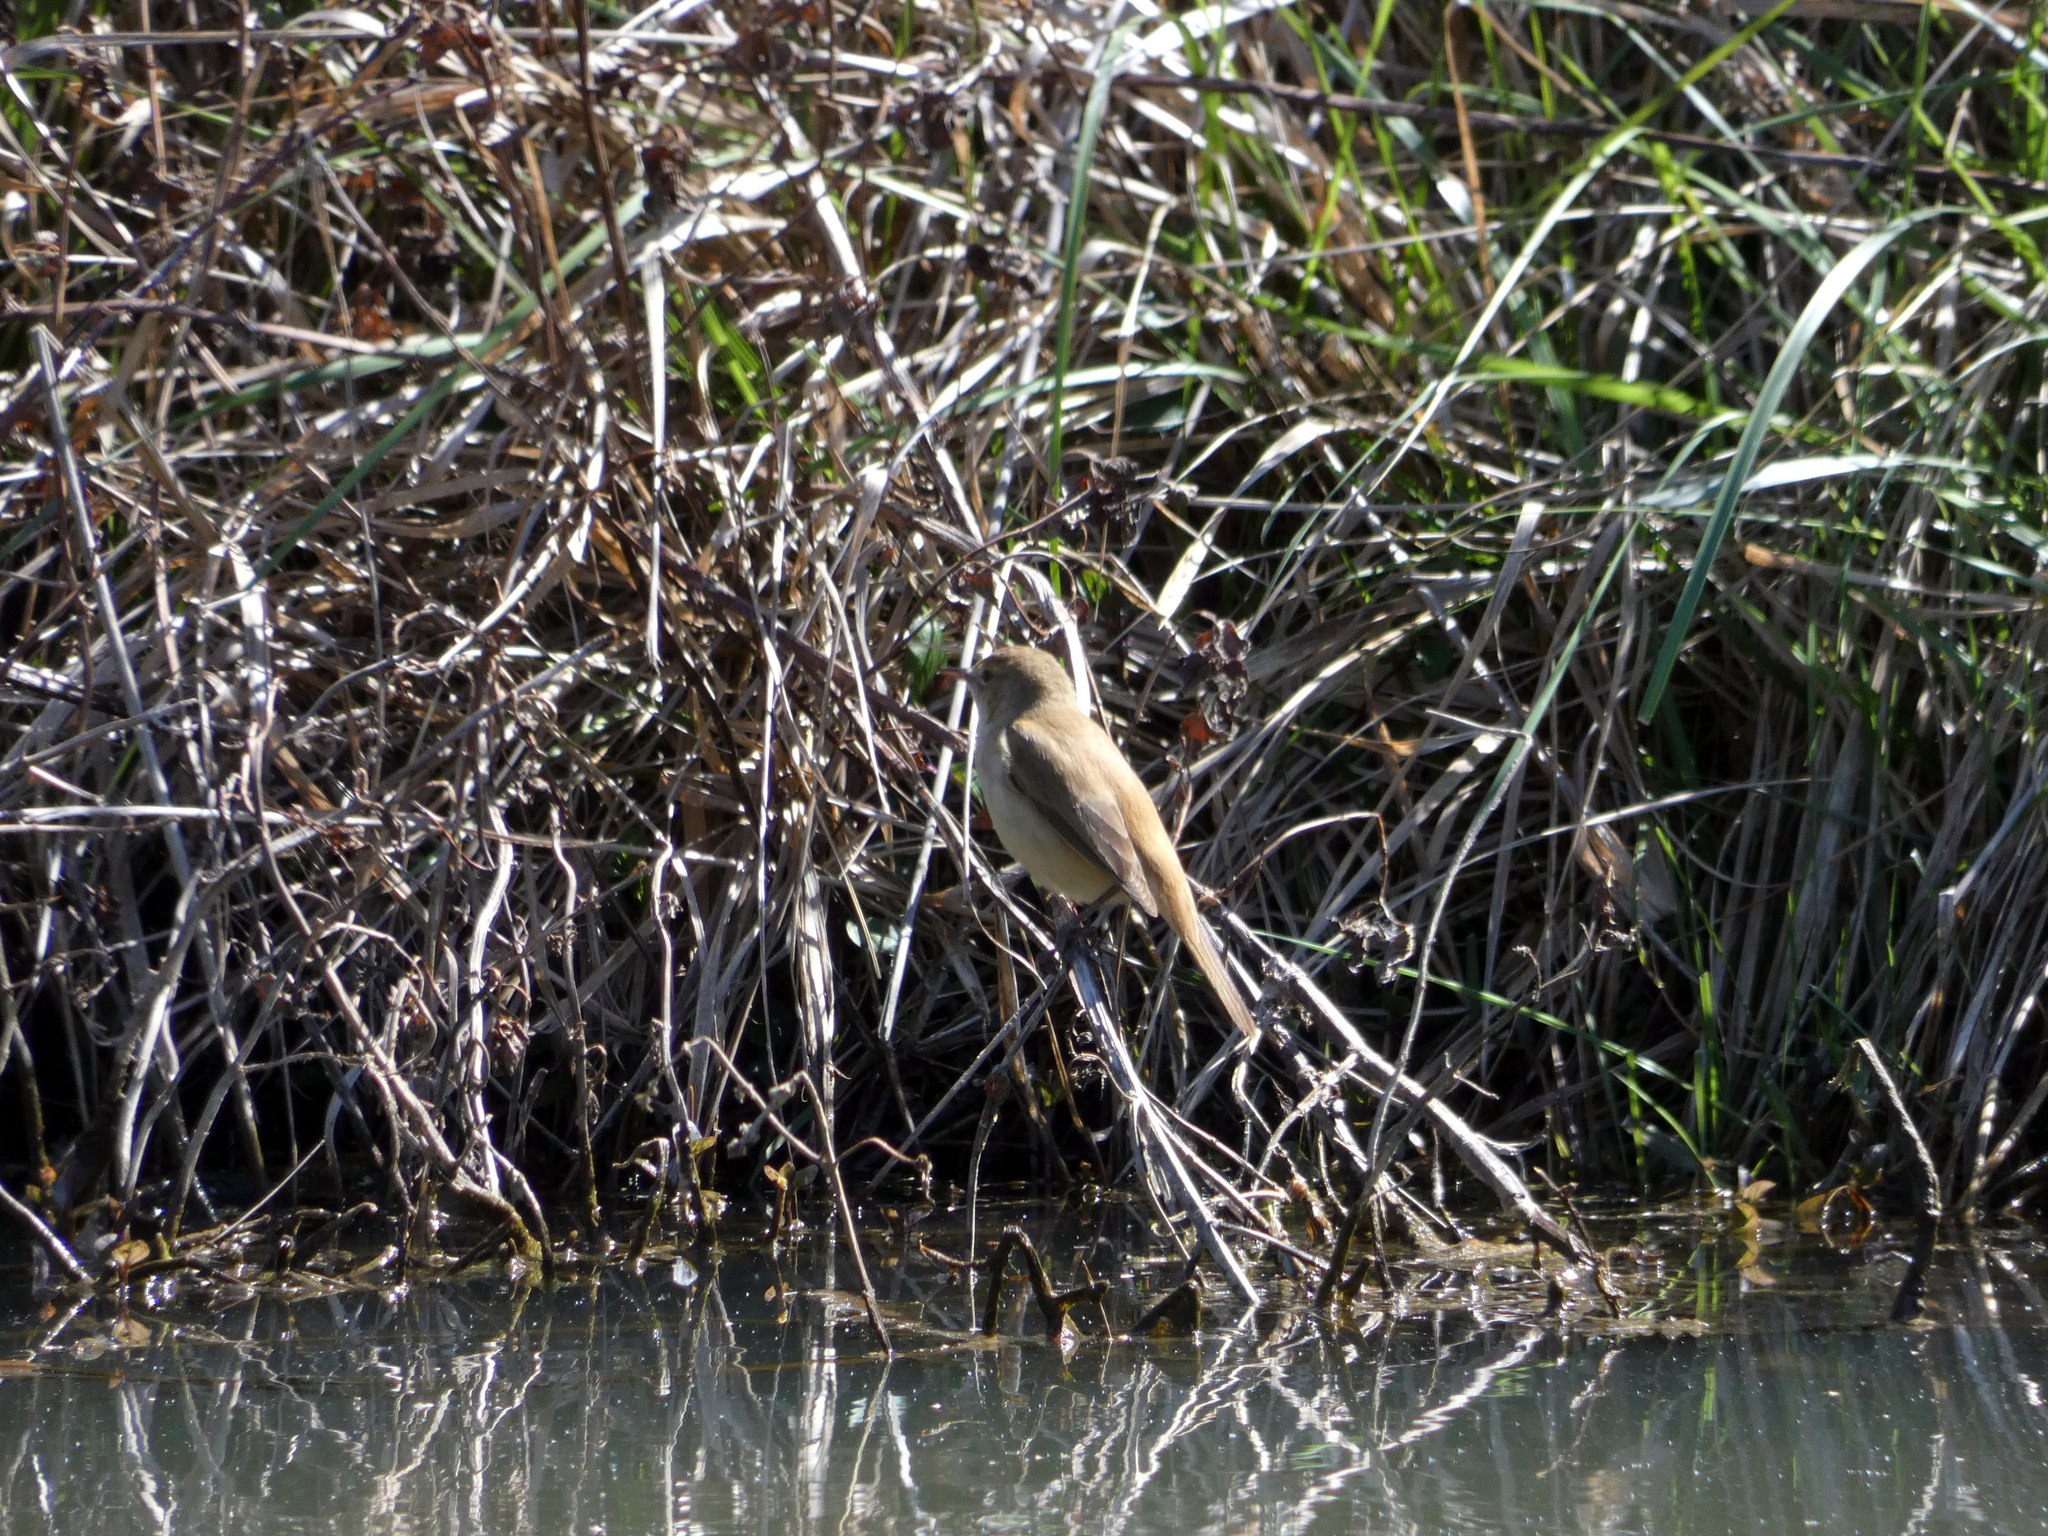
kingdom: Animalia
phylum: Chordata
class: Aves
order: Passeriformes
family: Acrocephalidae
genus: Acrocephalus
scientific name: Acrocephalus australis
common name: Australian reed warbler
